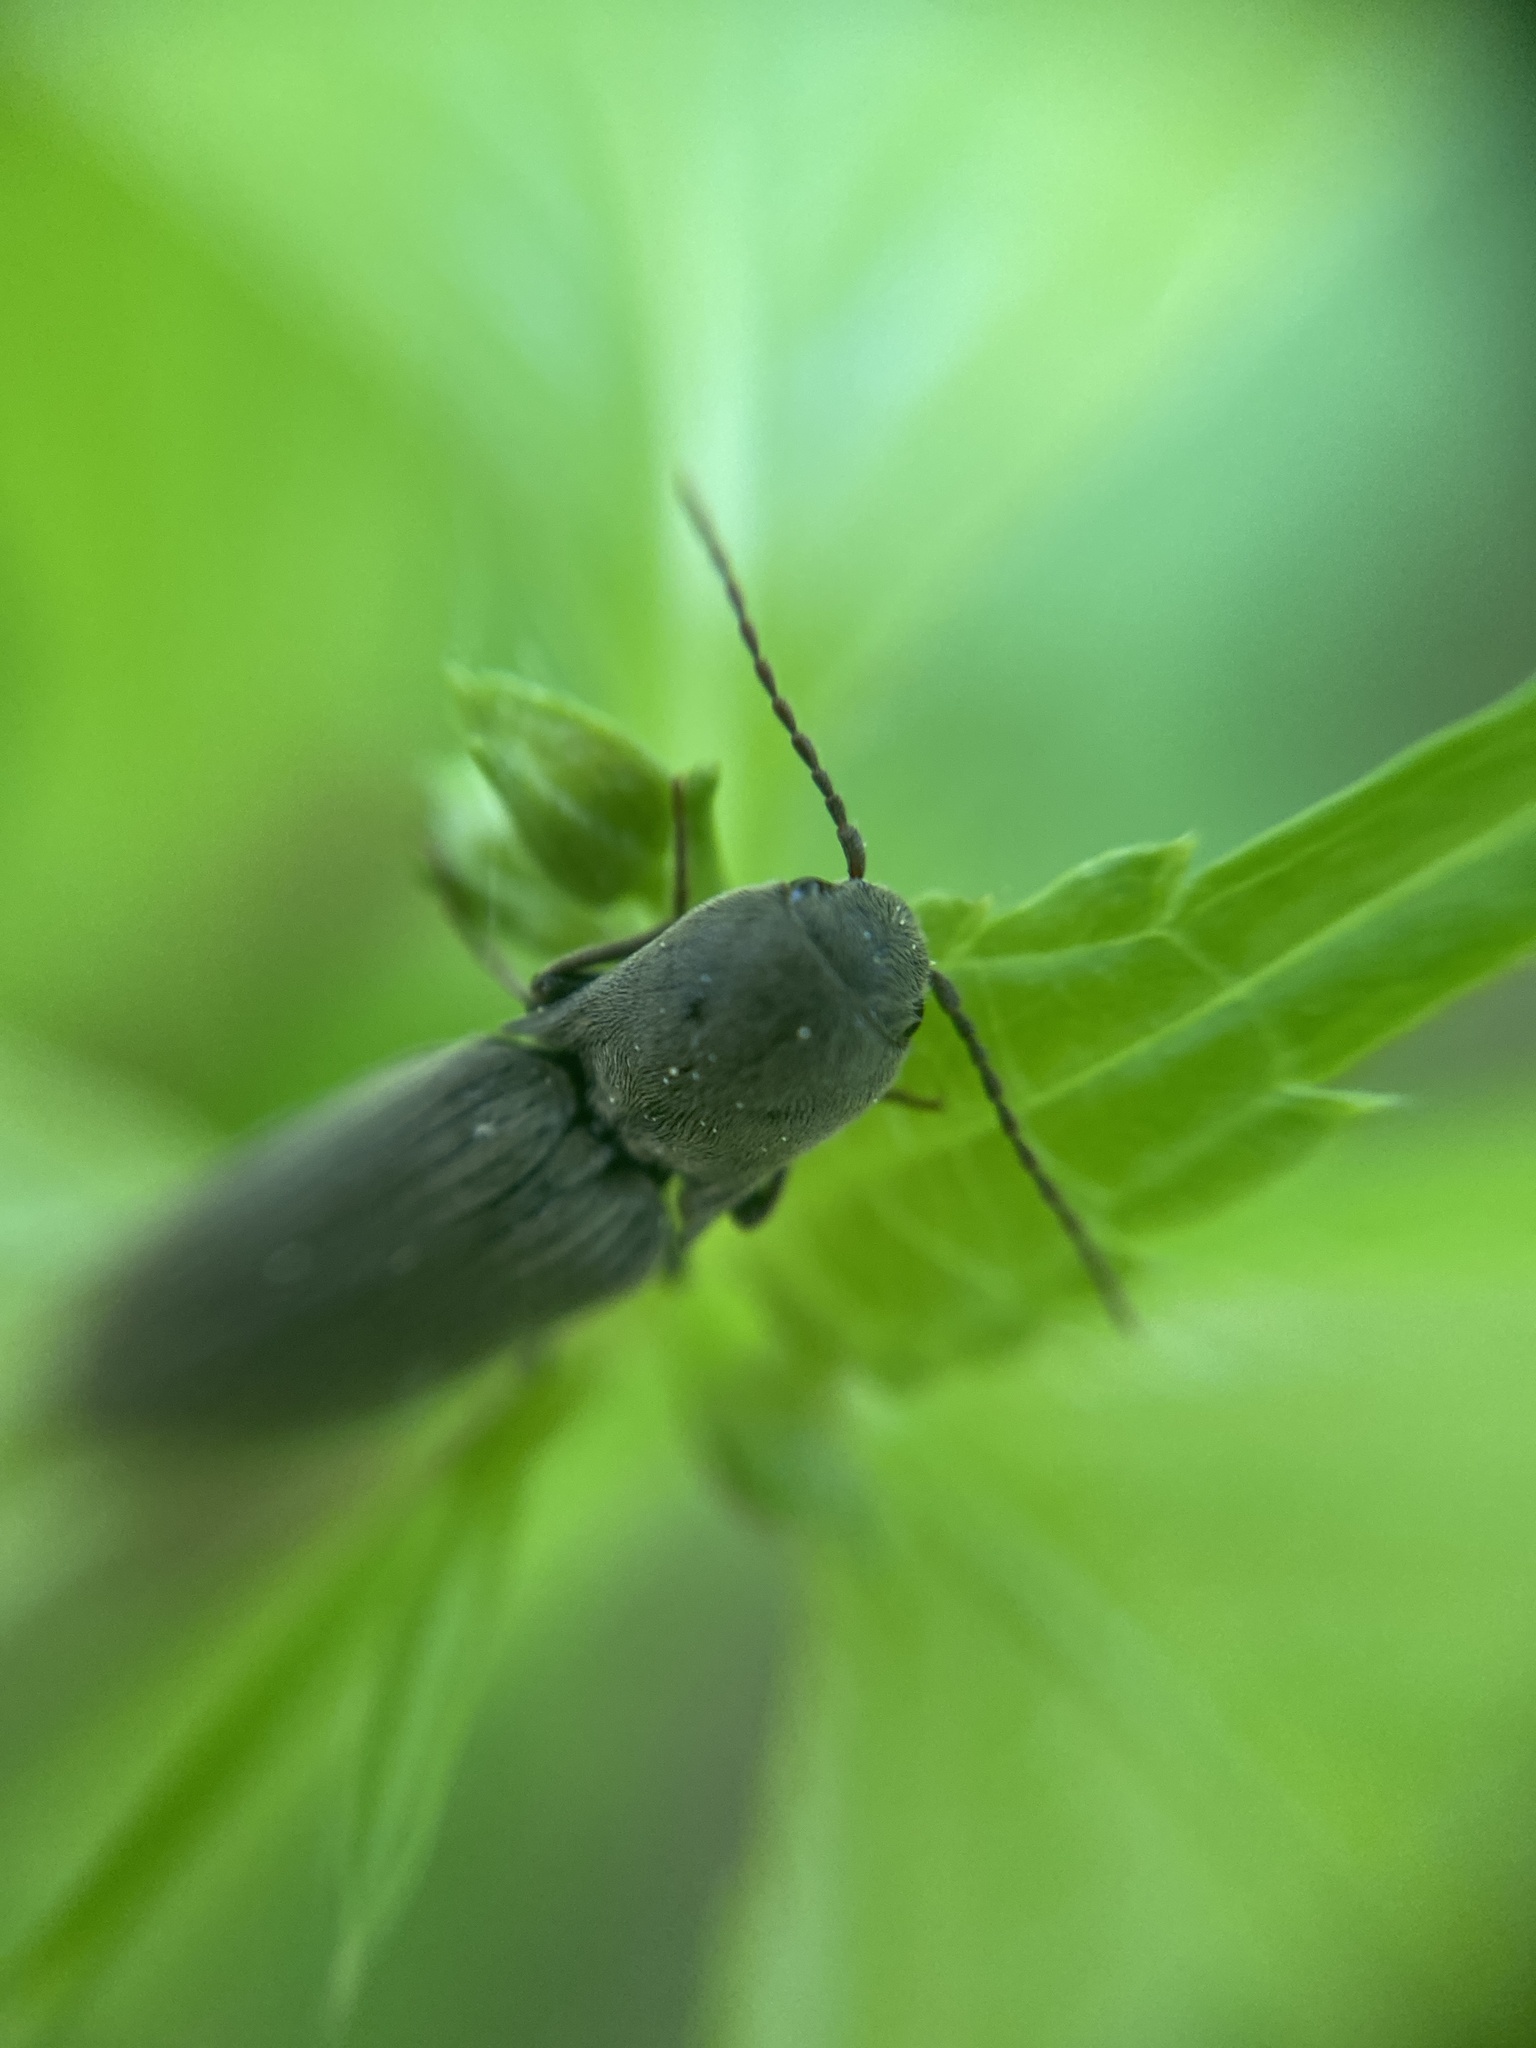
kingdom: Animalia
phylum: Arthropoda
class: Insecta
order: Coleoptera
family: Elateridae
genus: Agriotes
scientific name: Agriotes pilosellus
